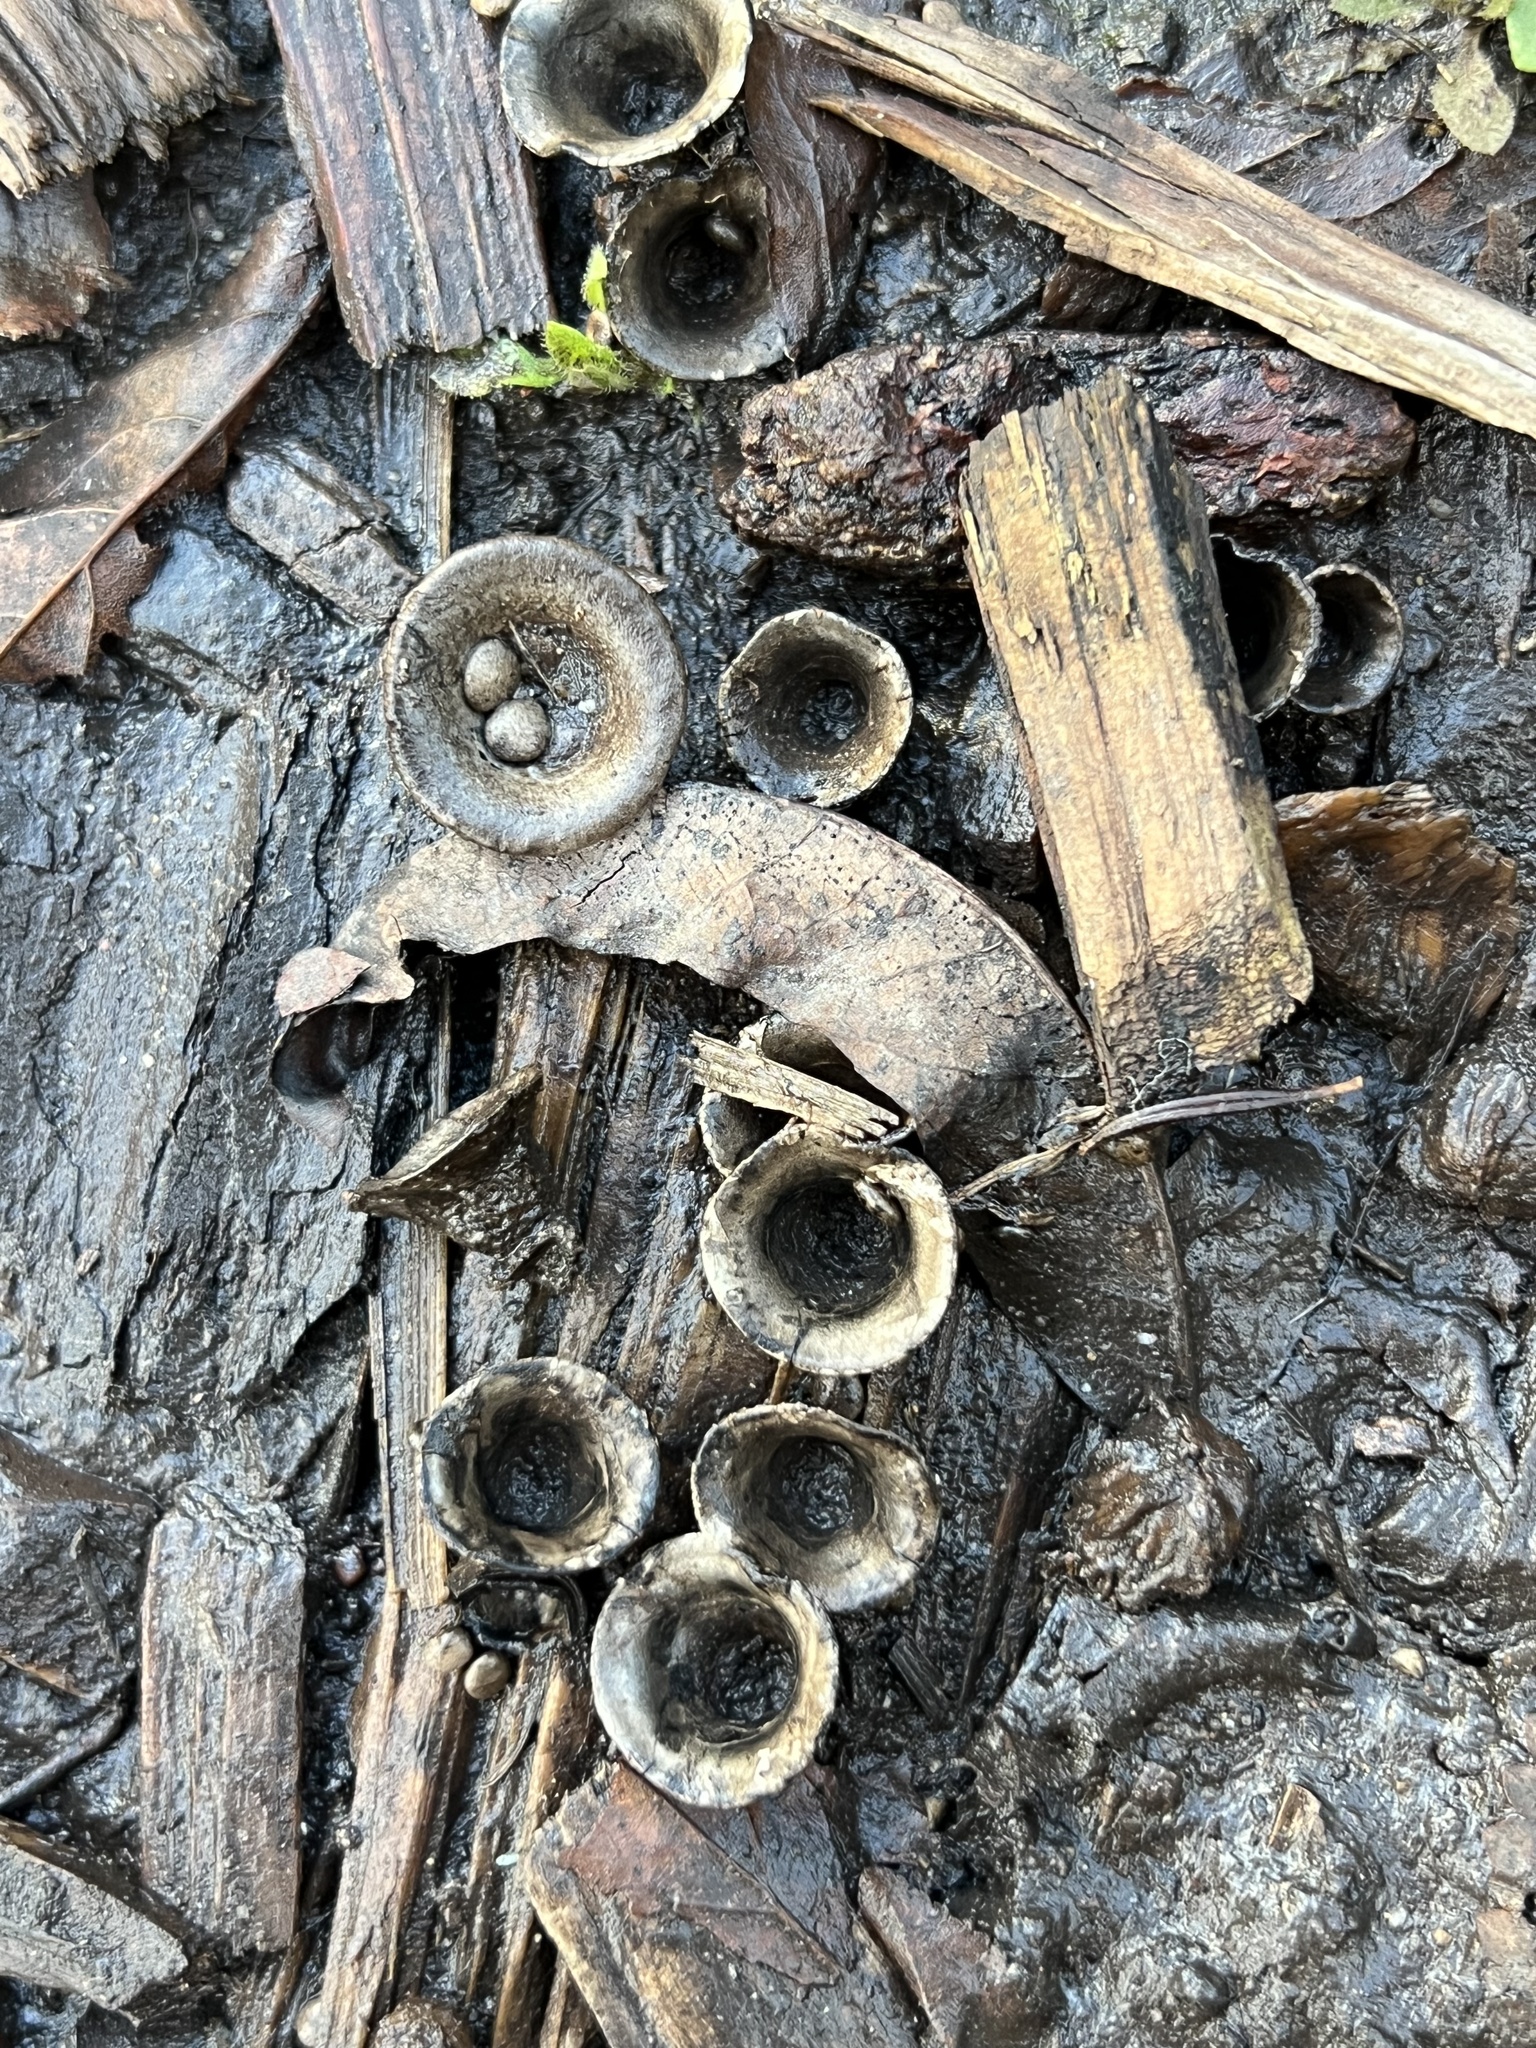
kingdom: Fungi
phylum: Basidiomycota
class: Agaricomycetes
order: Agaricales
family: Agaricaceae
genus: Cyathus
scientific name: Cyathus olla
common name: Field bird's nest
